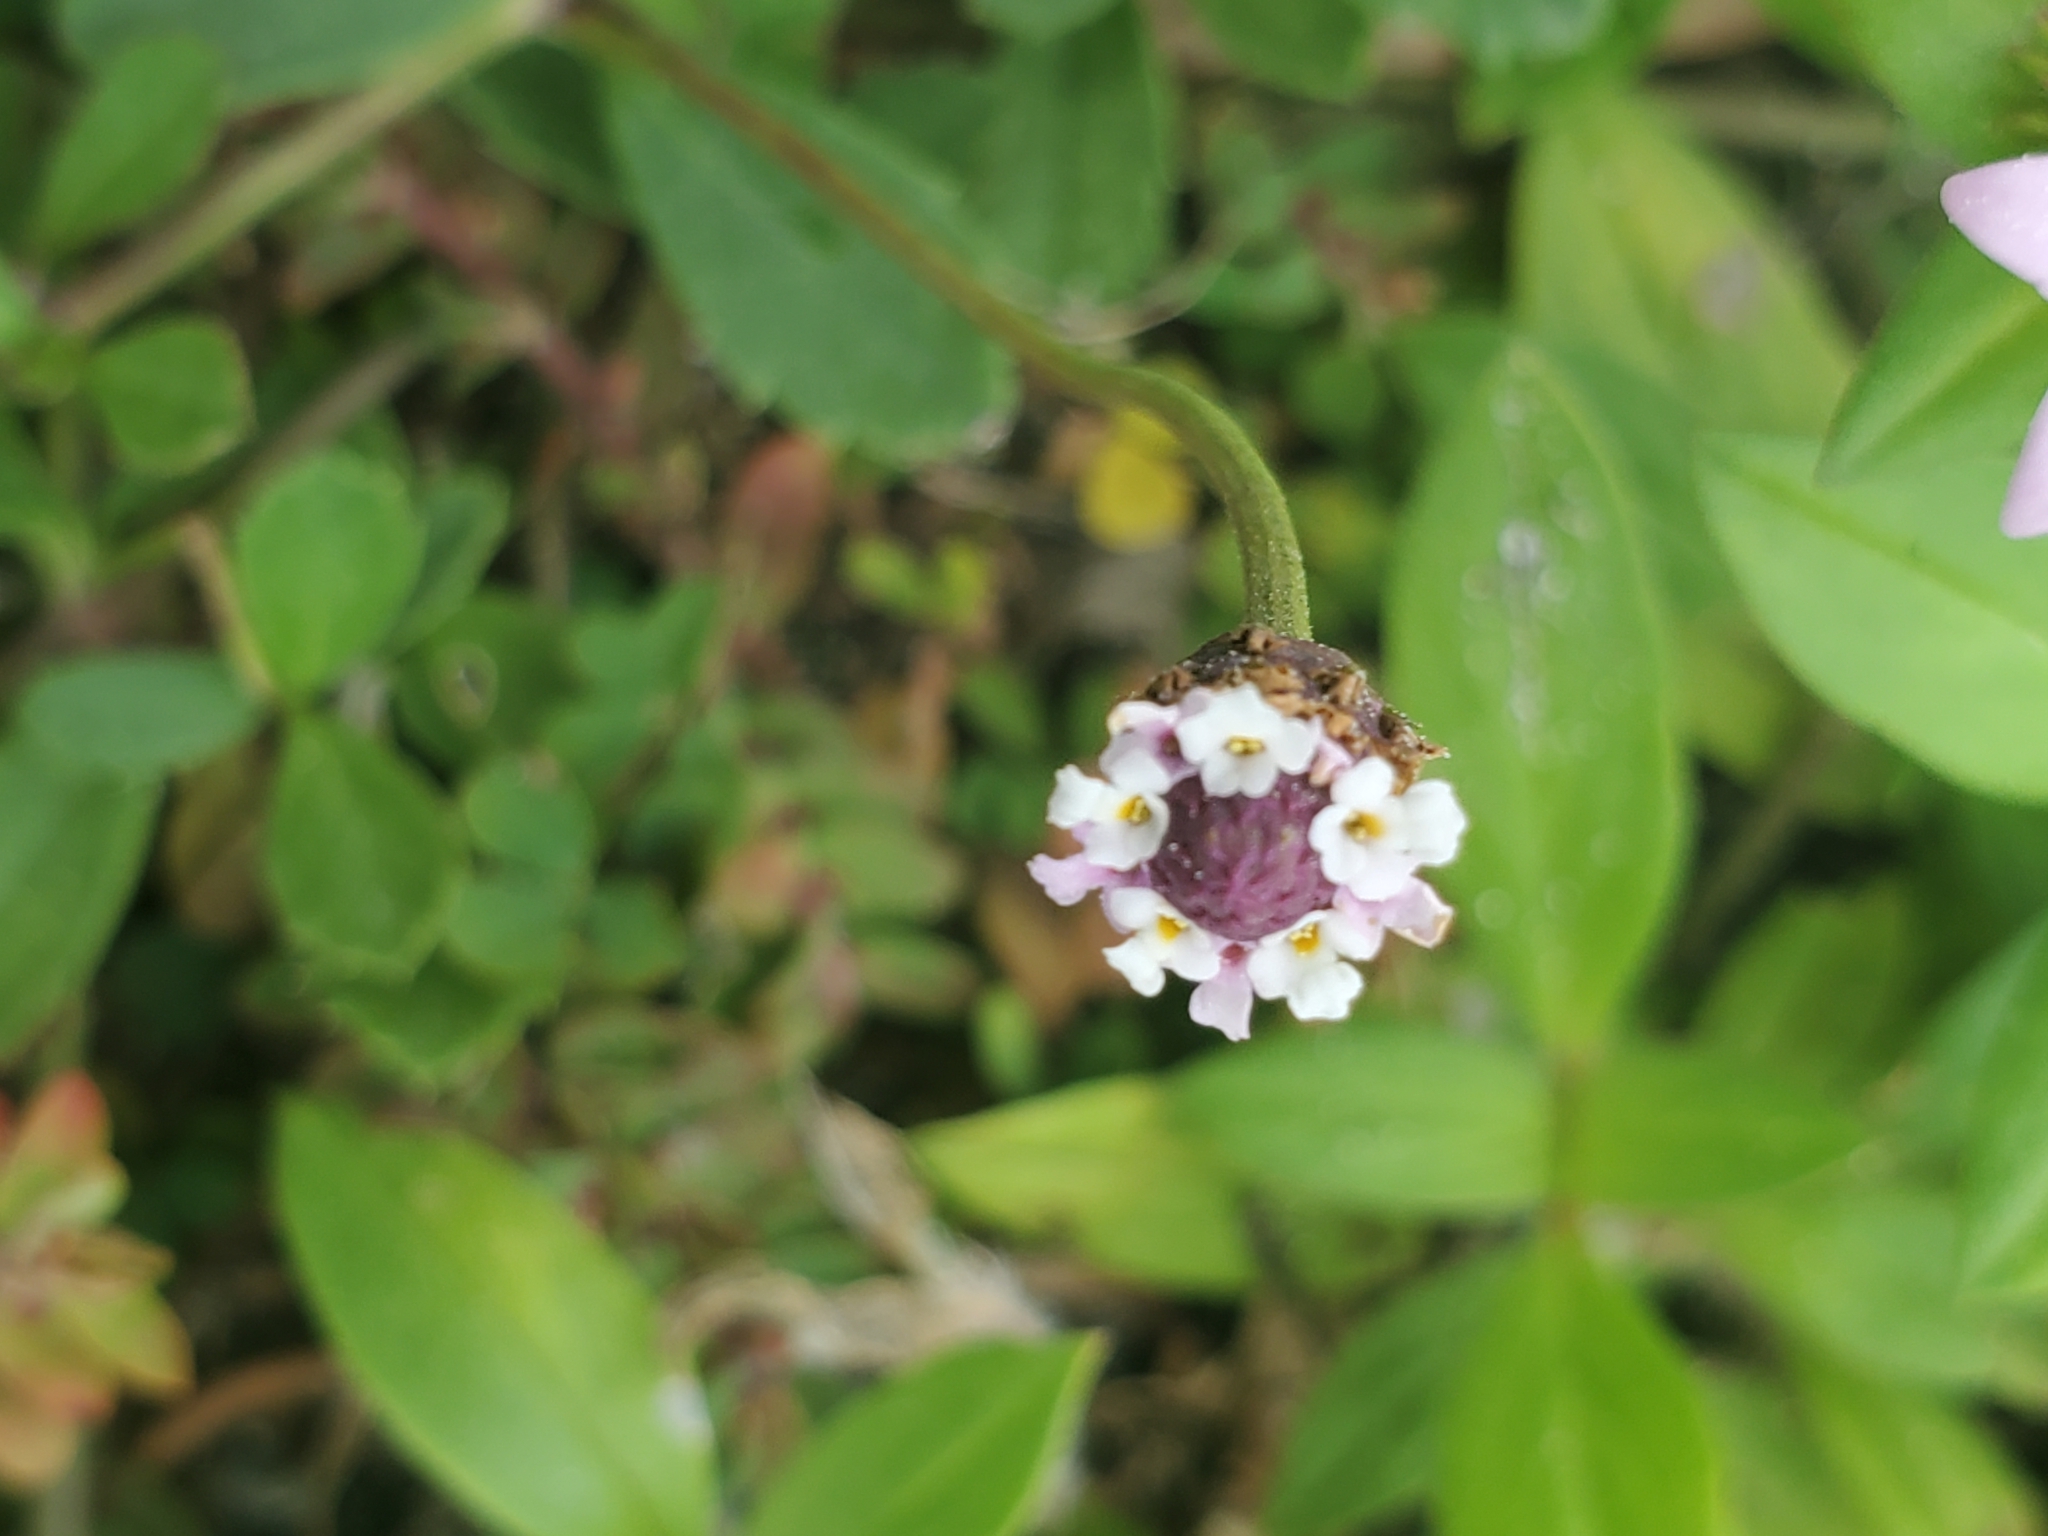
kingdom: Plantae
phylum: Tracheophyta
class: Magnoliopsida
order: Lamiales
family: Verbenaceae
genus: Phyla
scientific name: Phyla nodiflora
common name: Frogfruit
